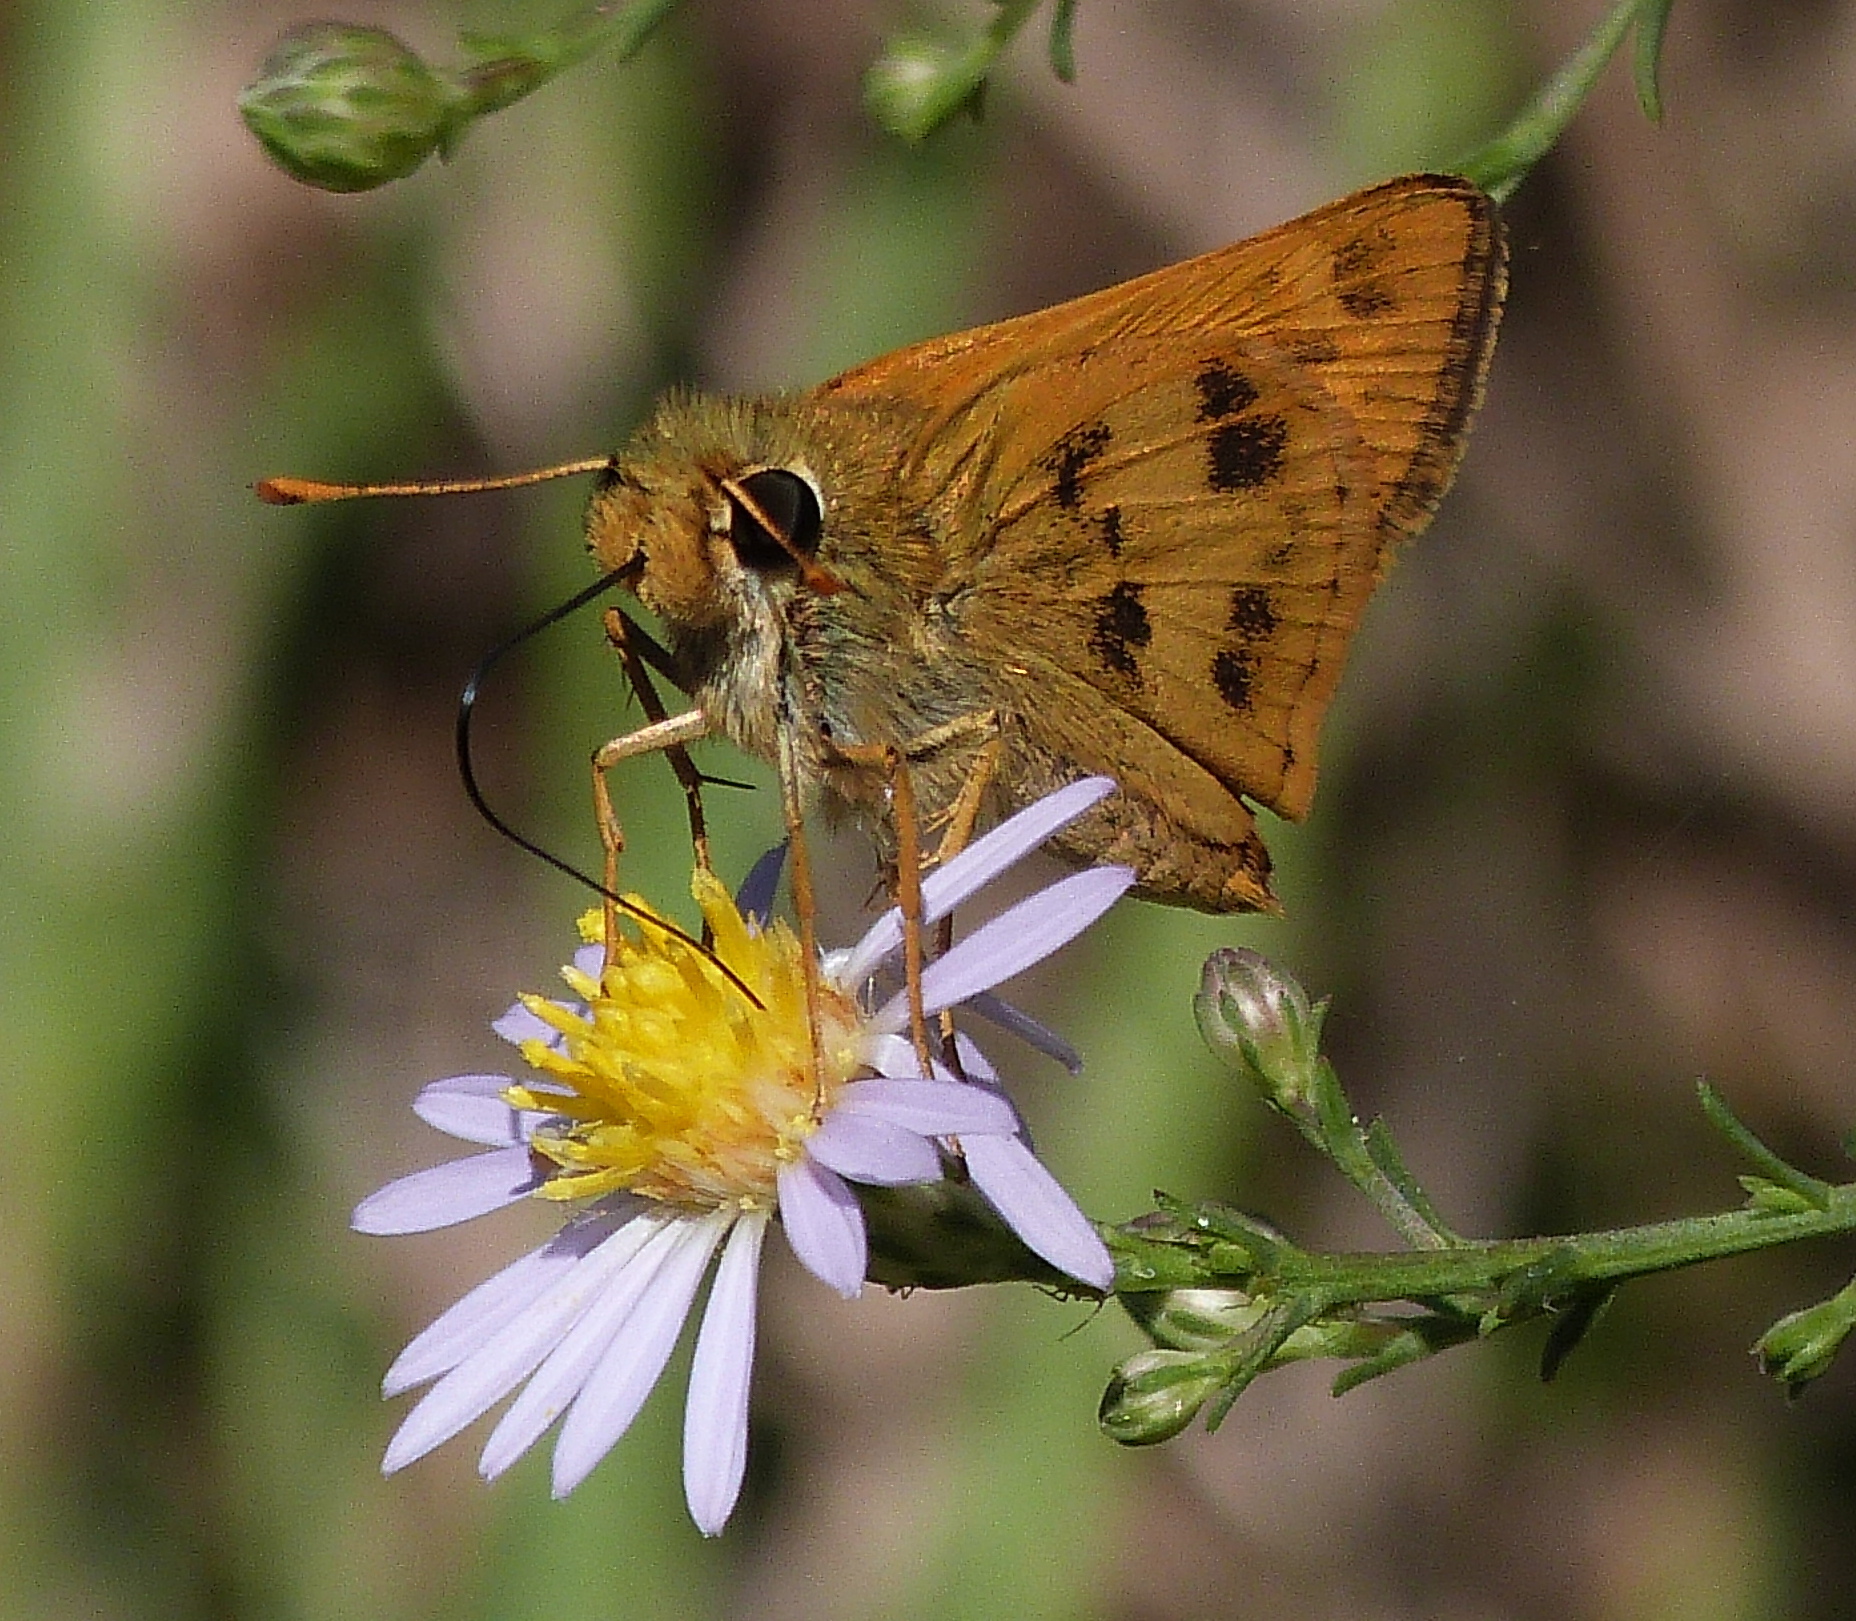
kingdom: Animalia
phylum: Arthropoda
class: Insecta
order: Lepidoptera
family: Hesperiidae
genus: Polites
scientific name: Polites vibex
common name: Whirlabout
